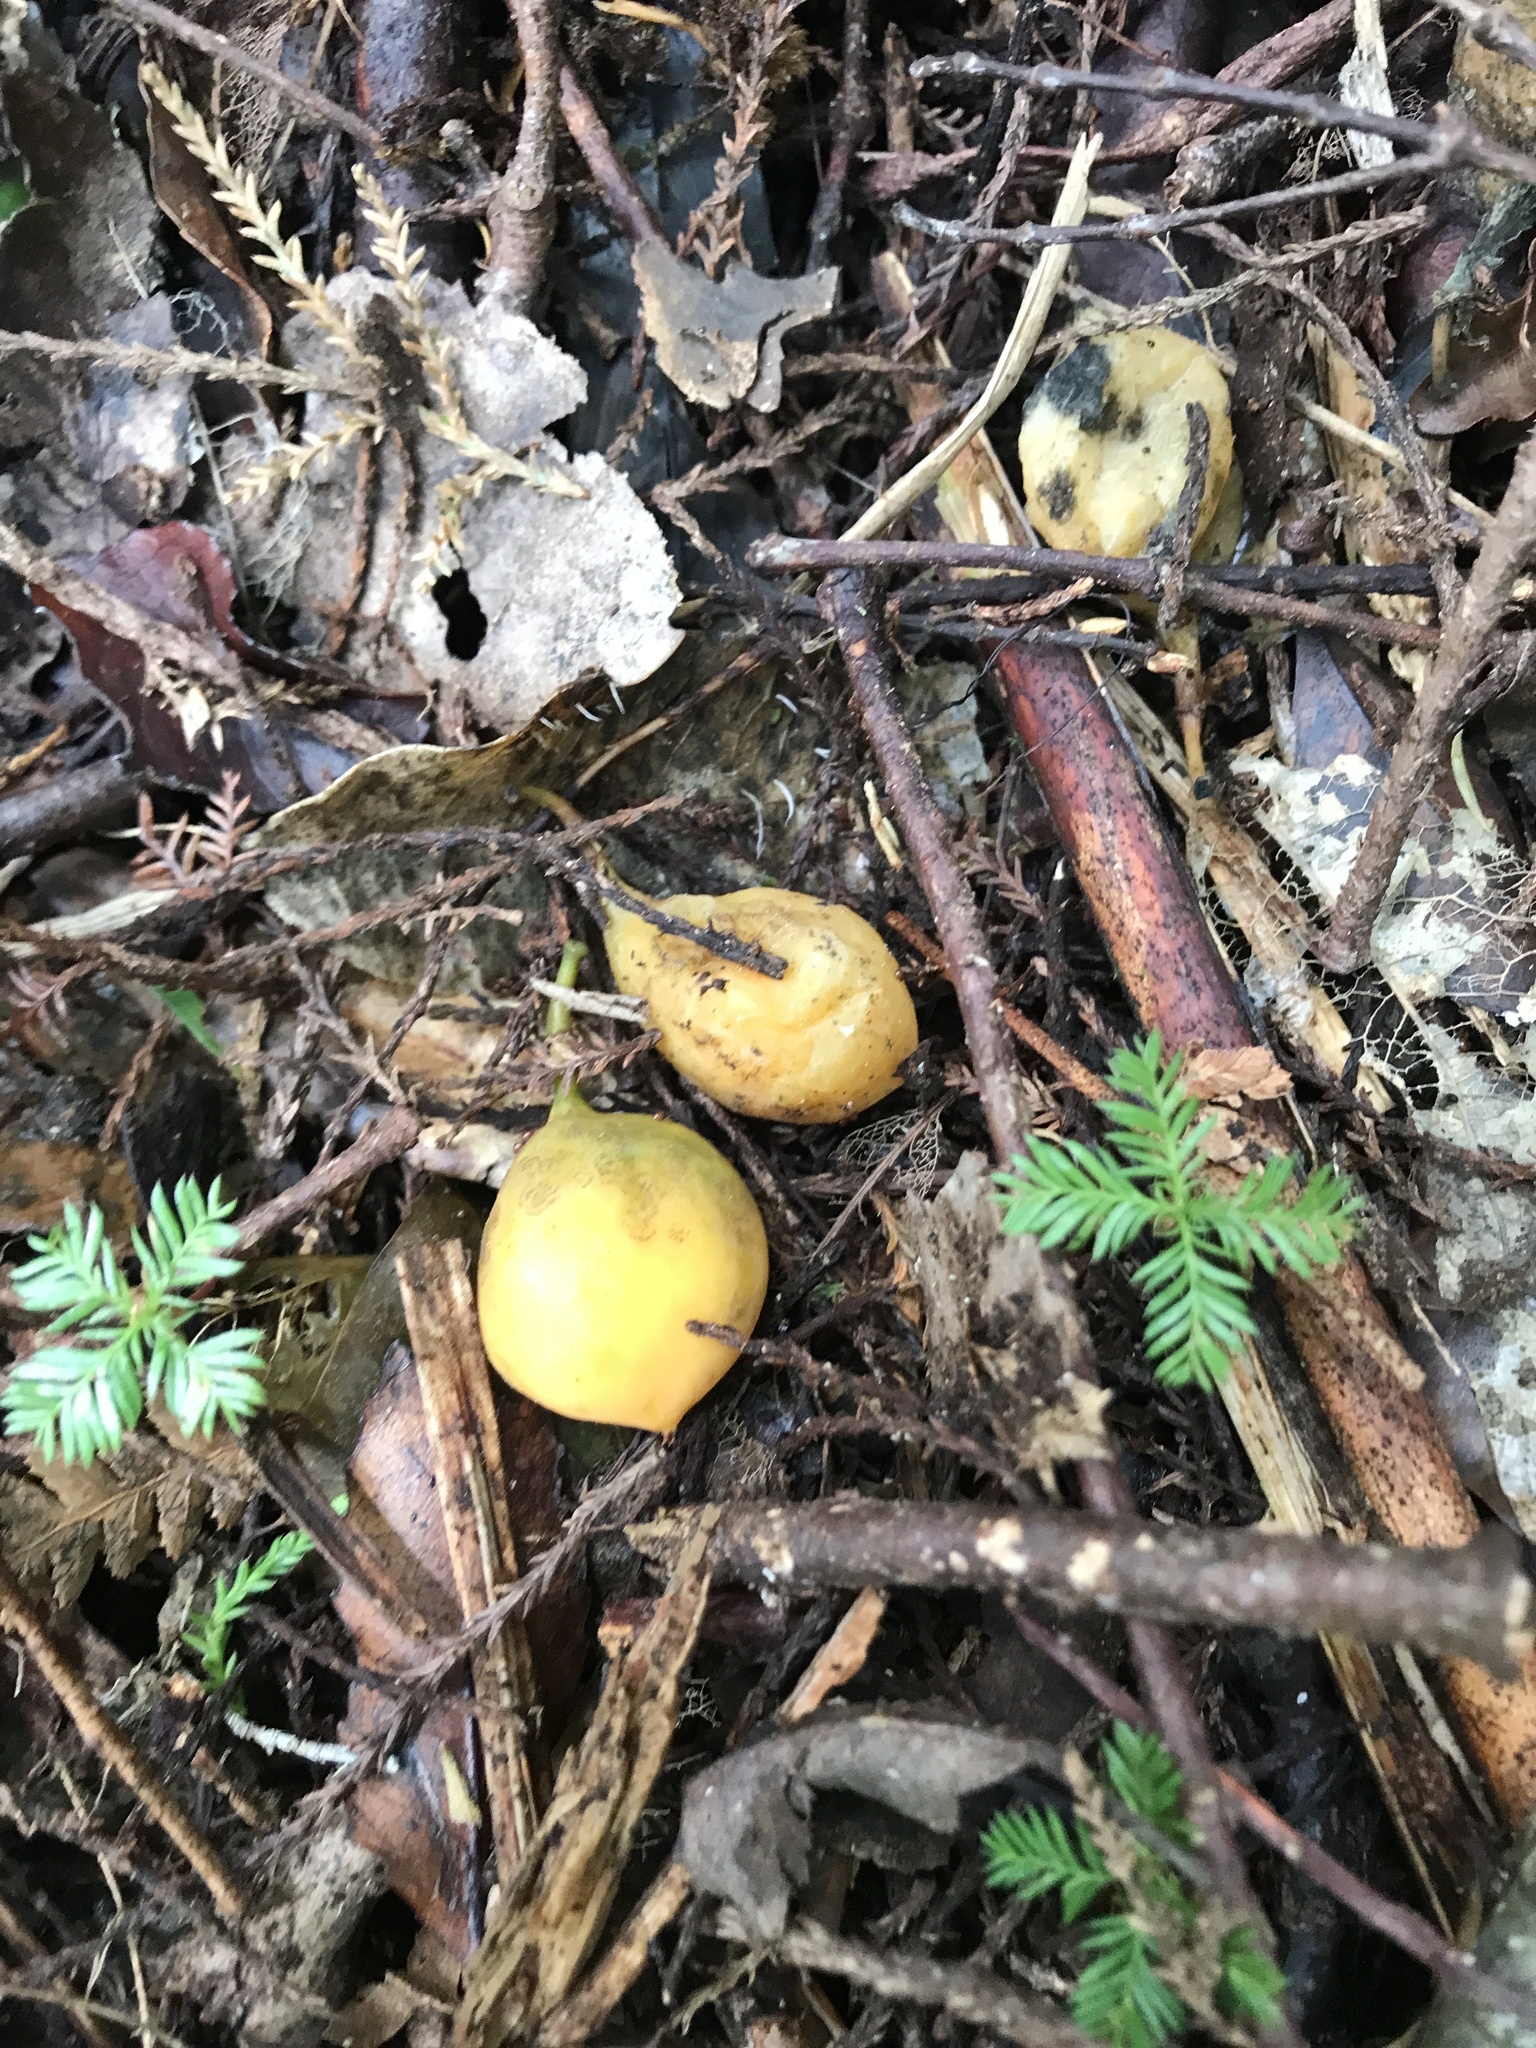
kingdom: Plantae
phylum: Tracheophyta
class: Magnoliopsida
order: Malpighiales
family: Passifloraceae
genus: Passiflora
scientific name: Passiflora tetrandra
